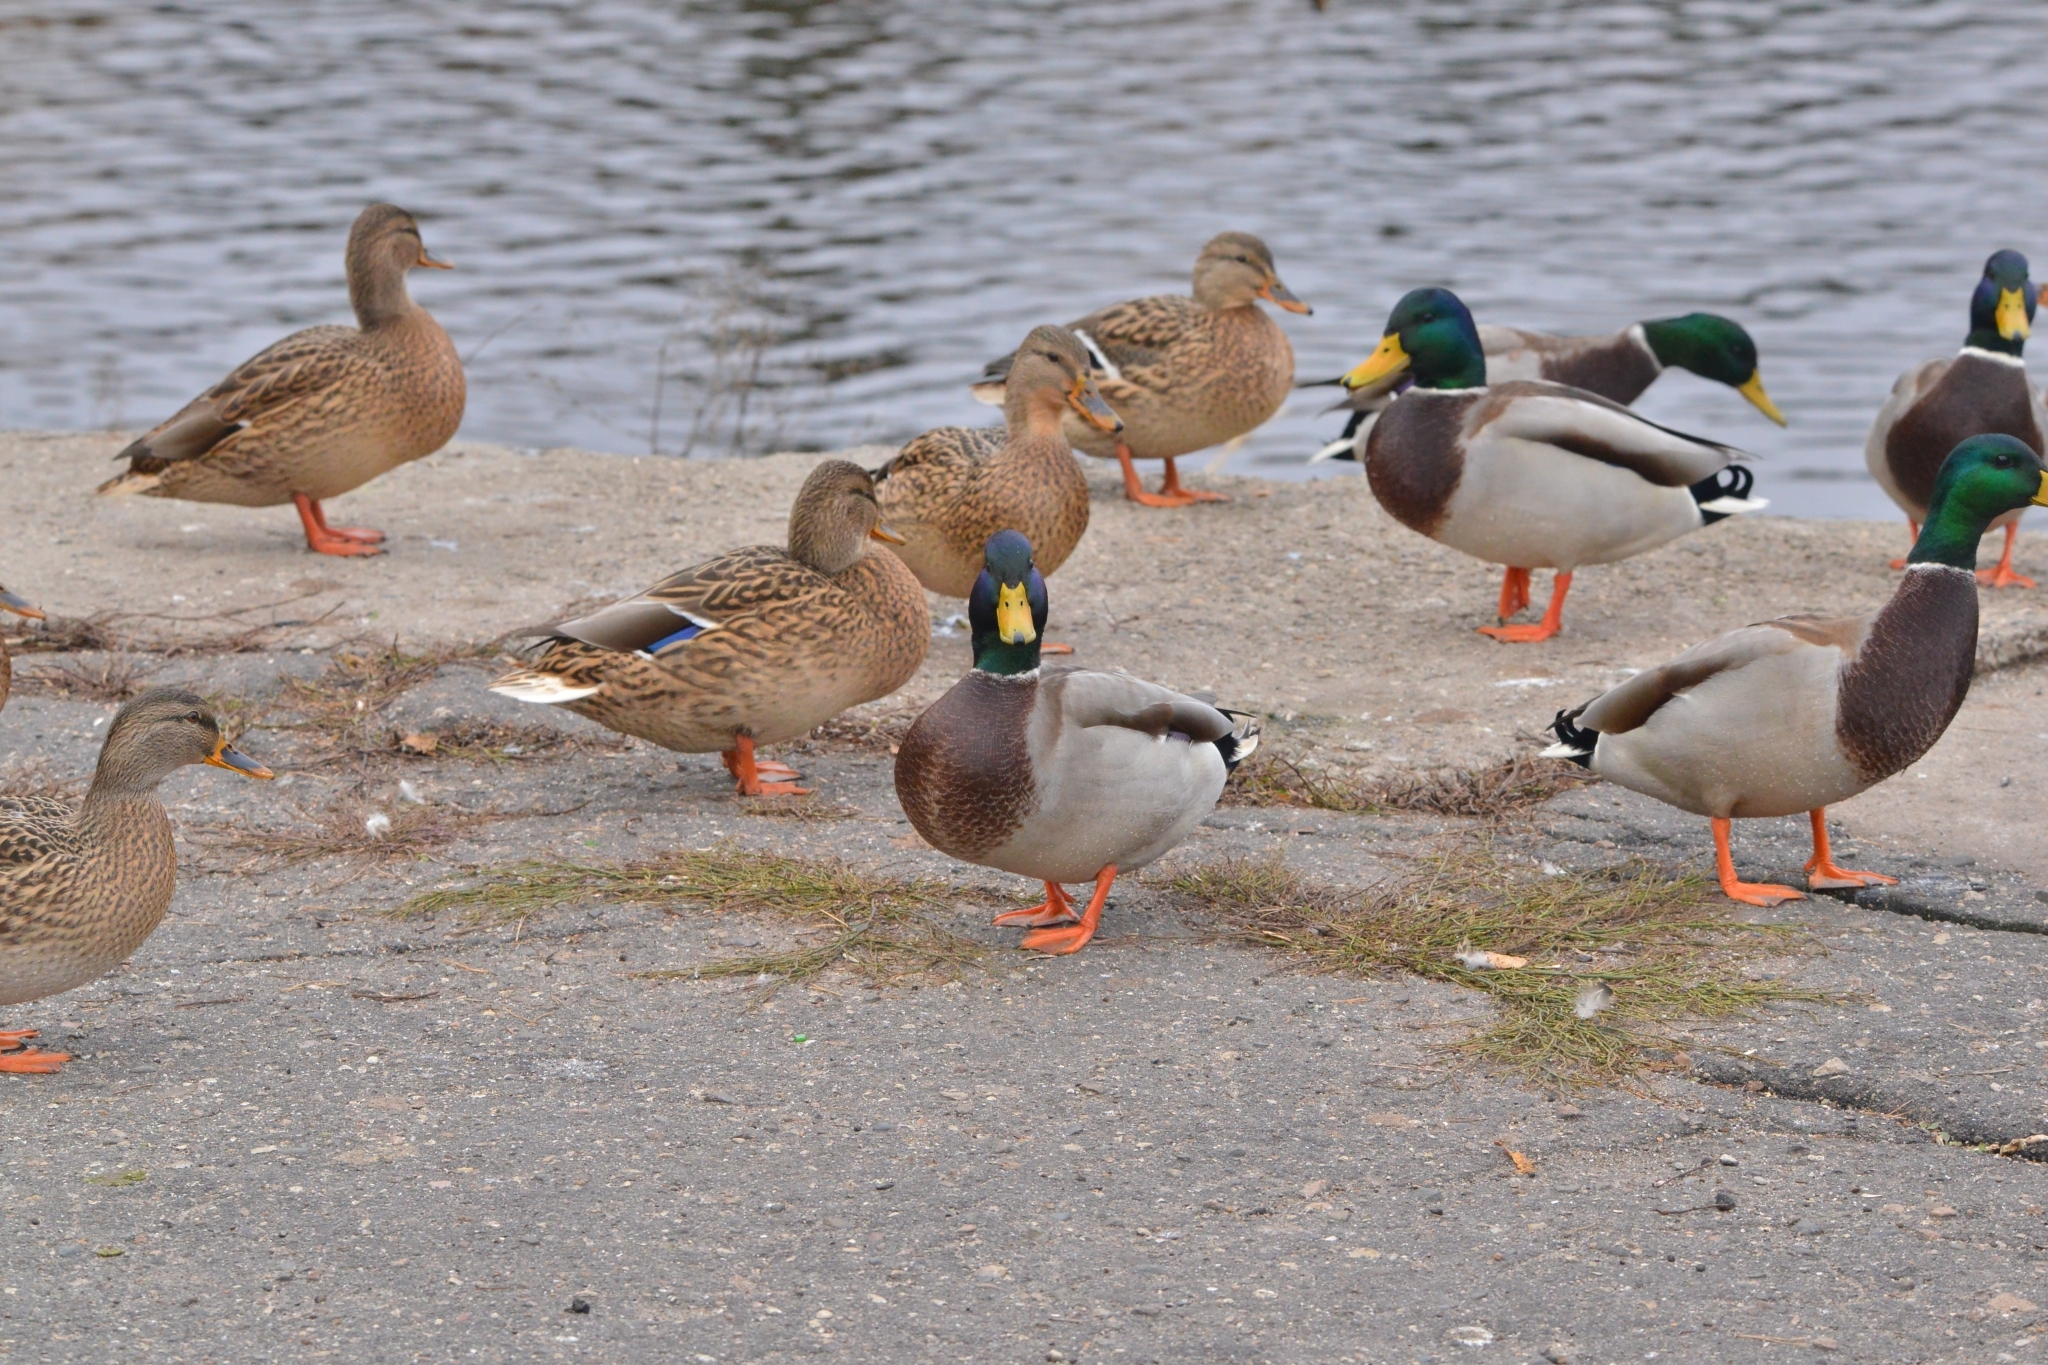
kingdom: Animalia
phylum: Chordata
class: Aves
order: Anseriformes
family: Anatidae
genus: Anas
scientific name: Anas platyrhynchos
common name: Mallard
